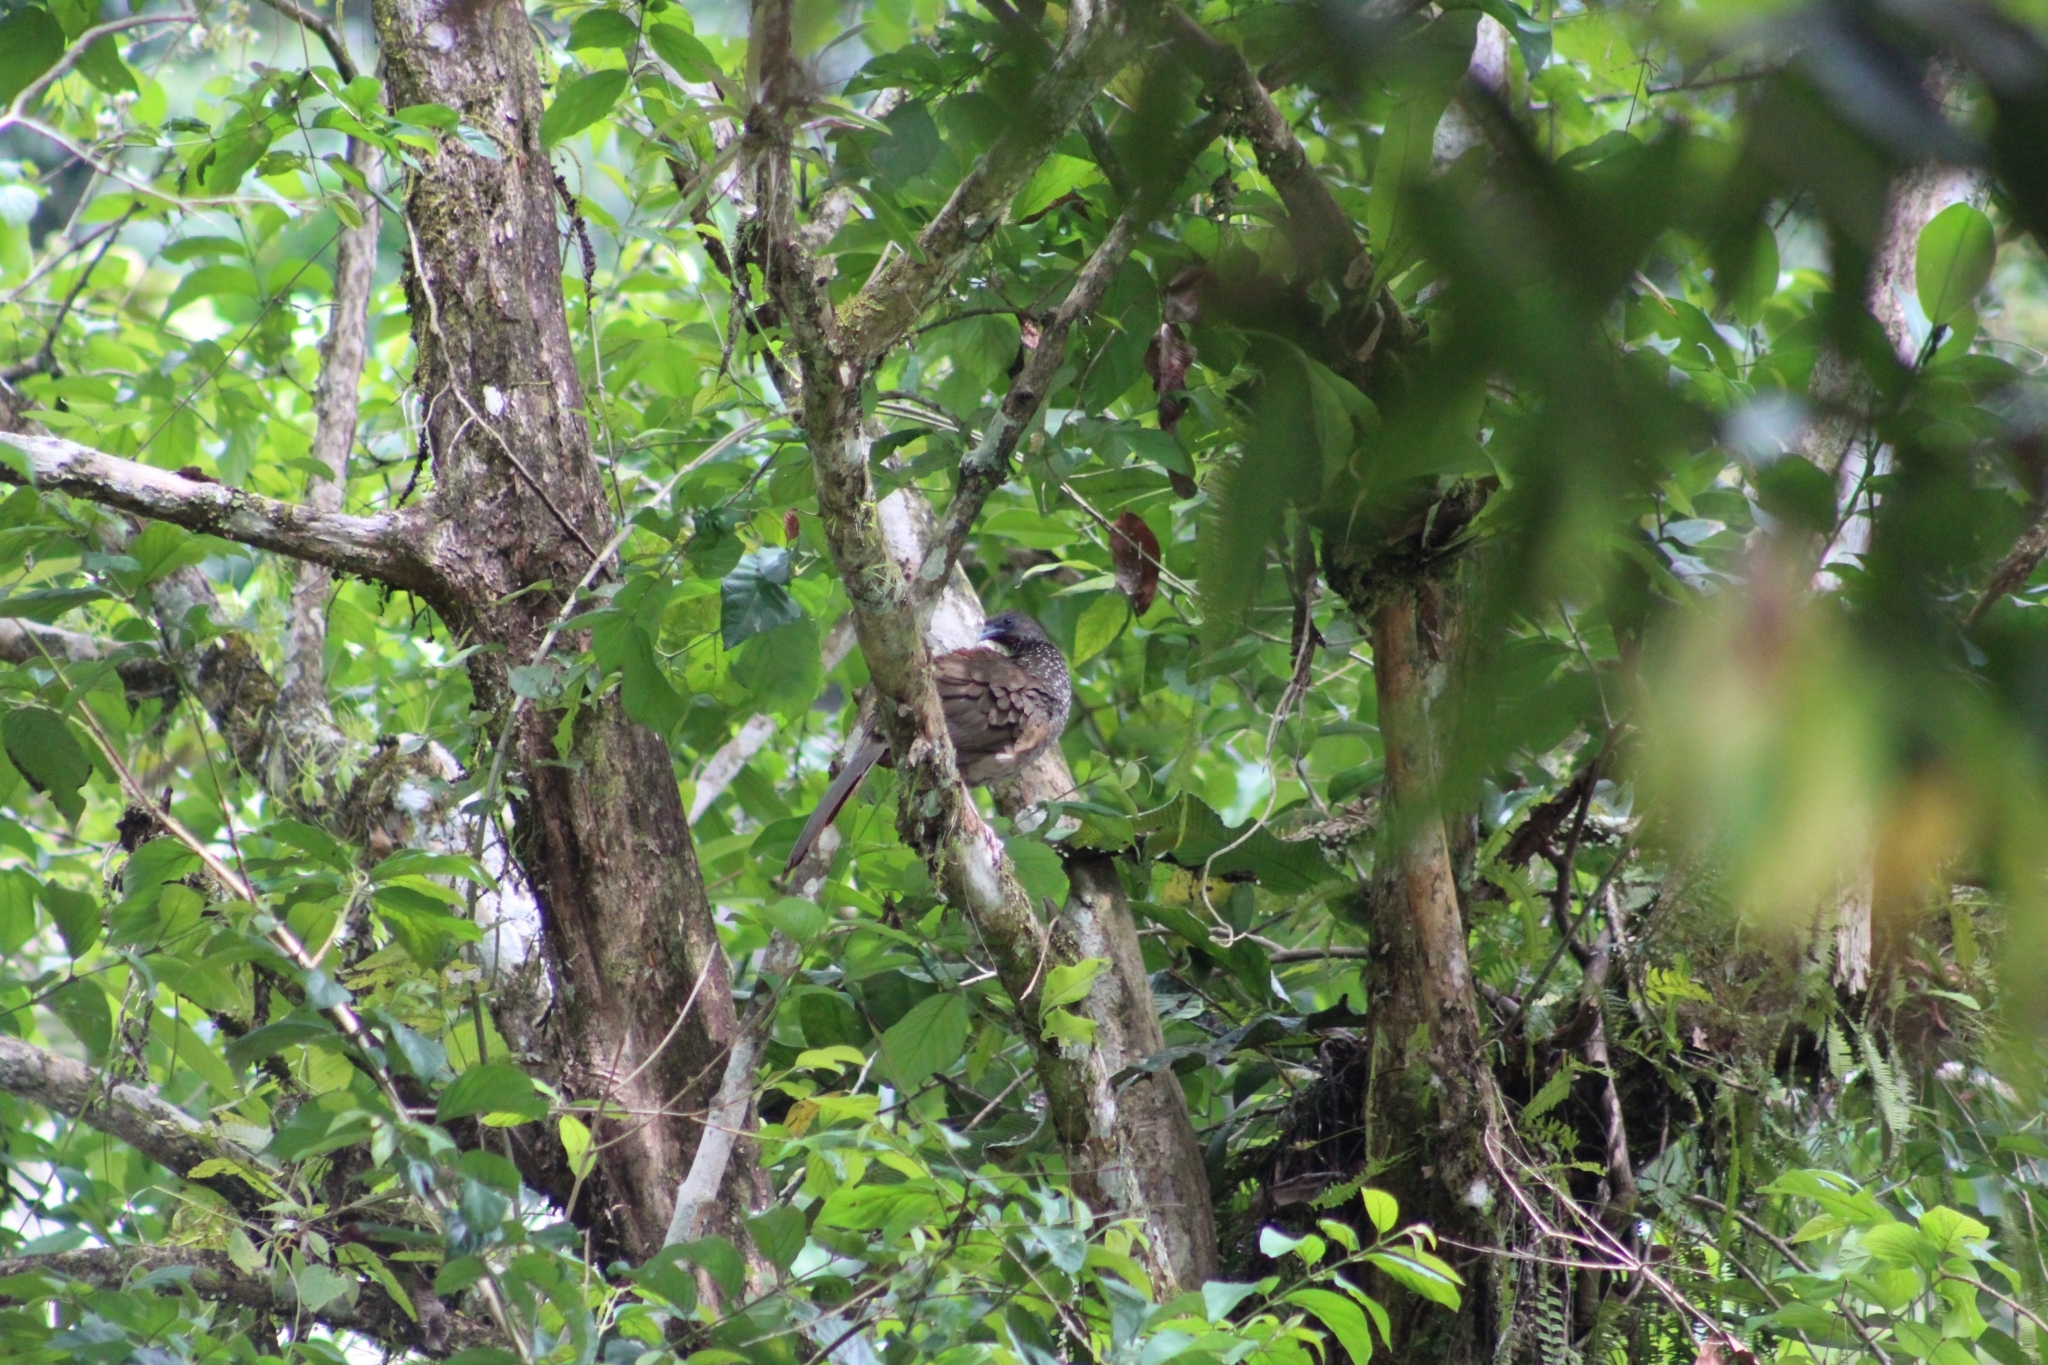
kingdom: Animalia
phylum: Chordata
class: Aves
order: Galliformes
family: Cracidae
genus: Ortalis
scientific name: Ortalis guttata
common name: Speckled chachalaca
